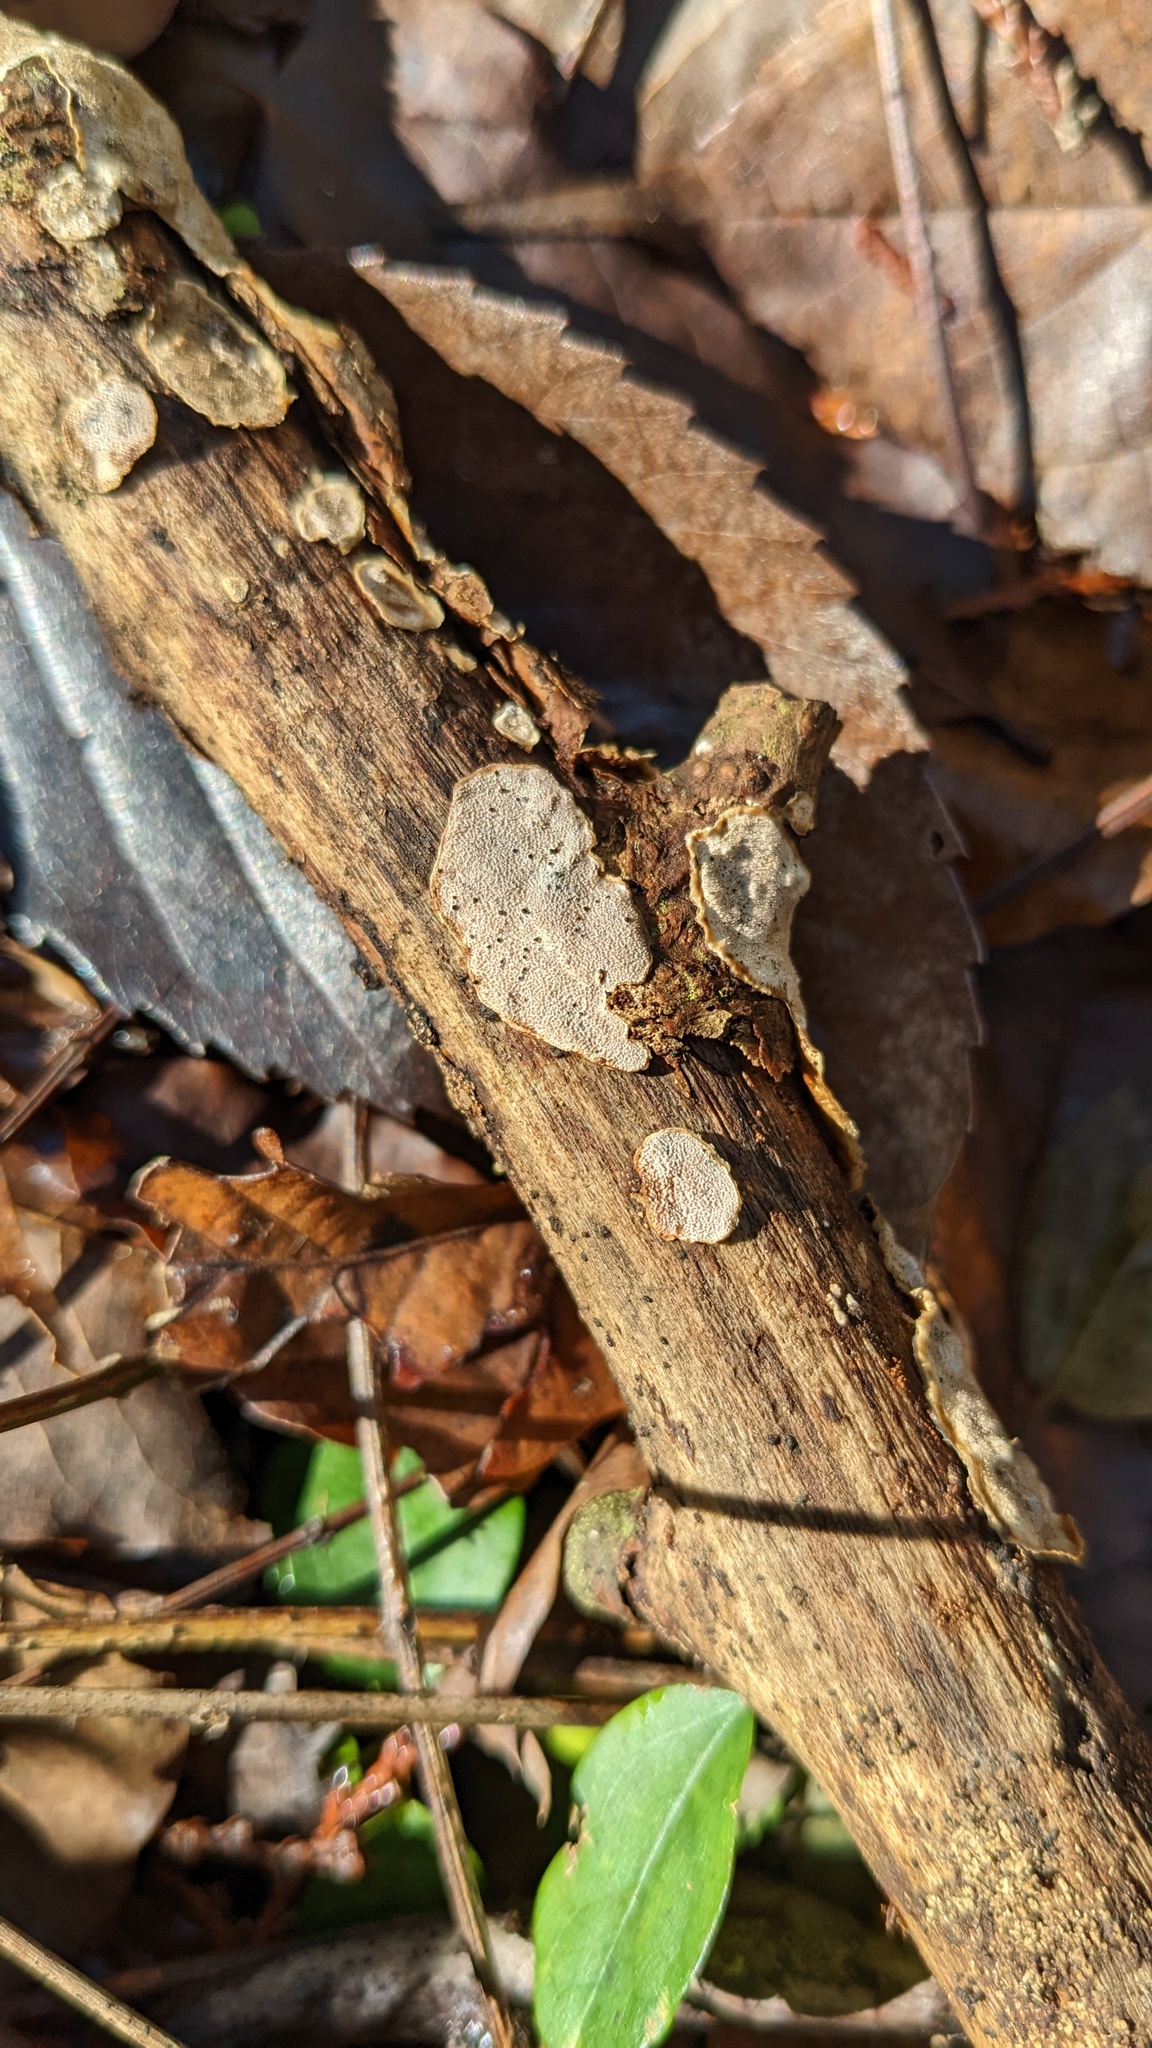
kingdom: Fungi
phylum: Basidiomycota
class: Agaricomycetes
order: Auriculariales
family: Auriculariaceae
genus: Heterochaete
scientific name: Heterochaete delicata
